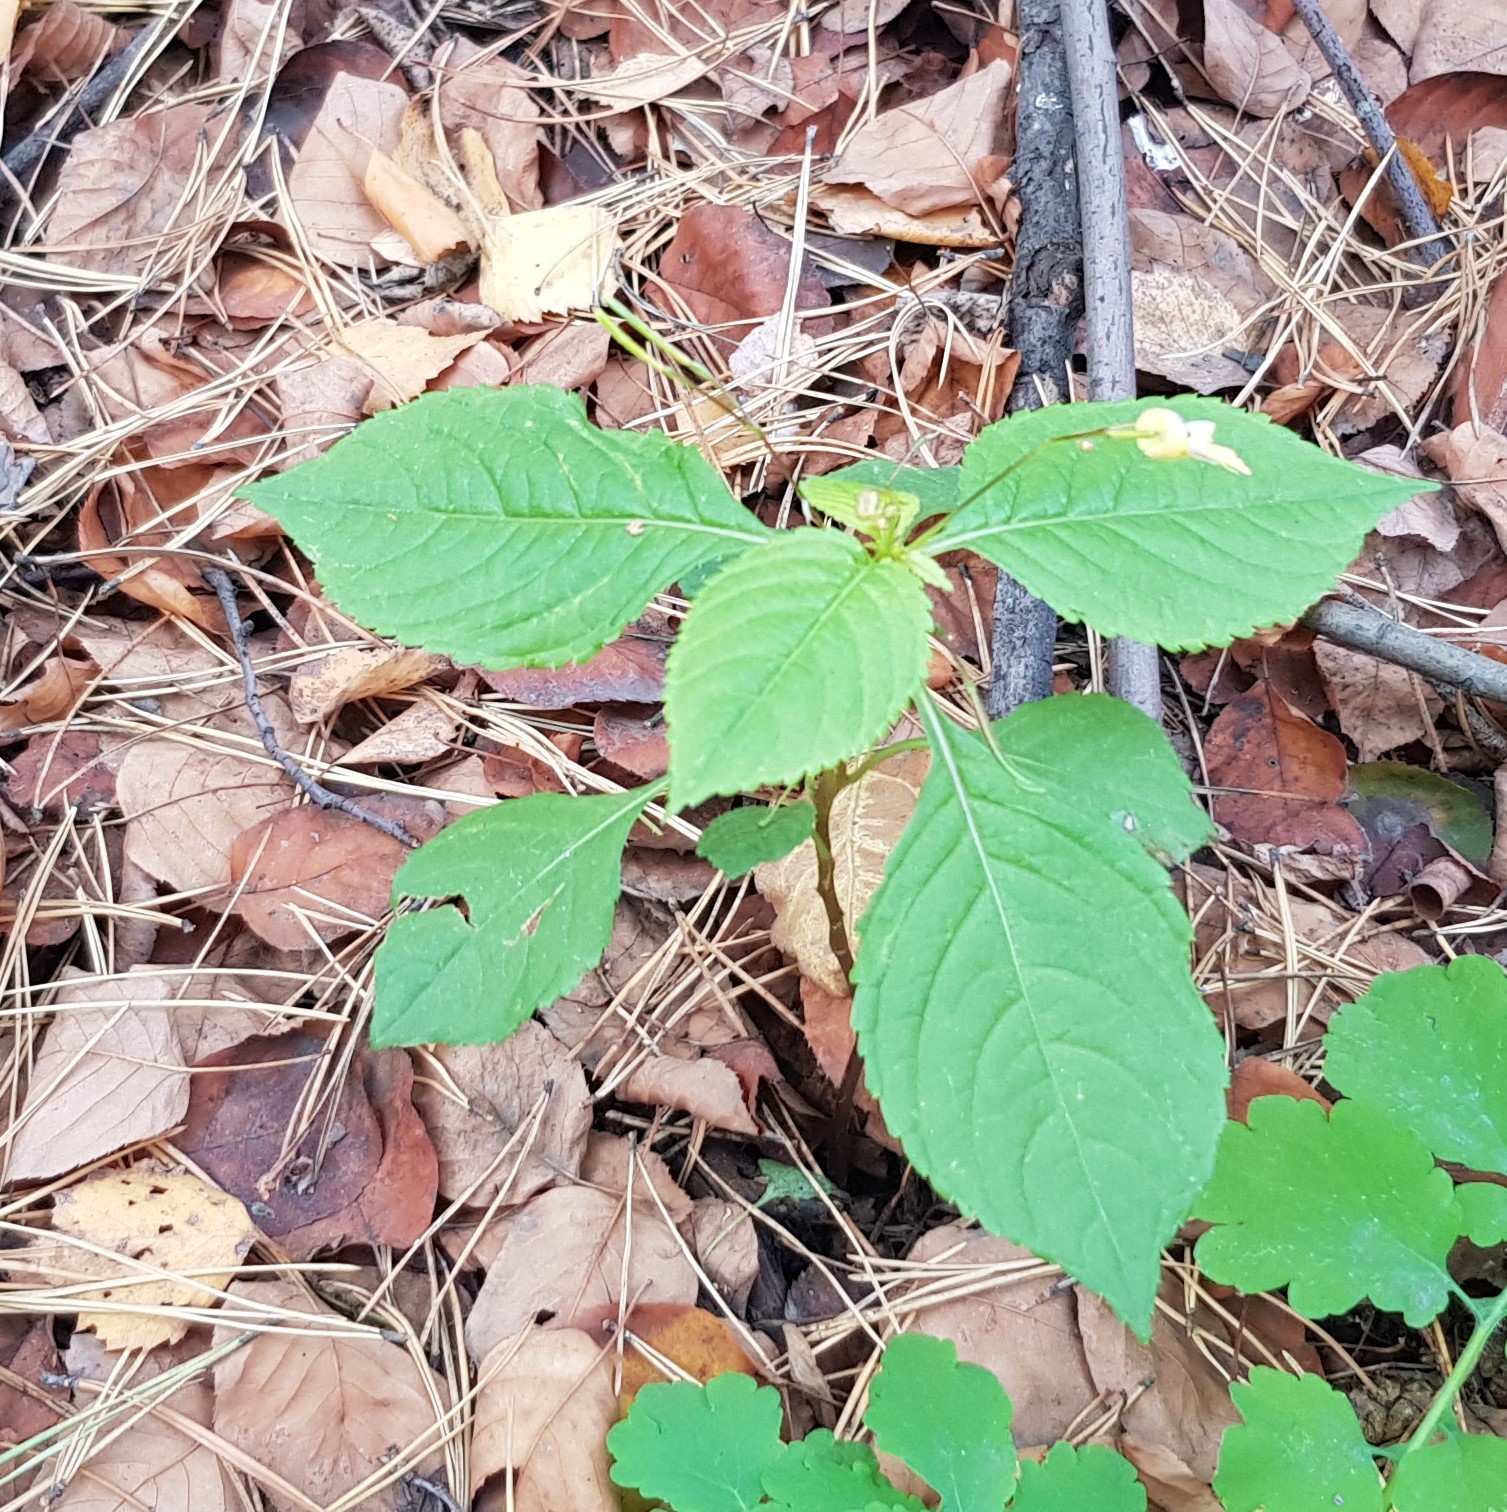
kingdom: Plantae
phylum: Tracheophyta
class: Magnoliopsida
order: Ericales
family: Balsaminaceae
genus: Impatiens
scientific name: Impatiens parviflora
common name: Small balsam
